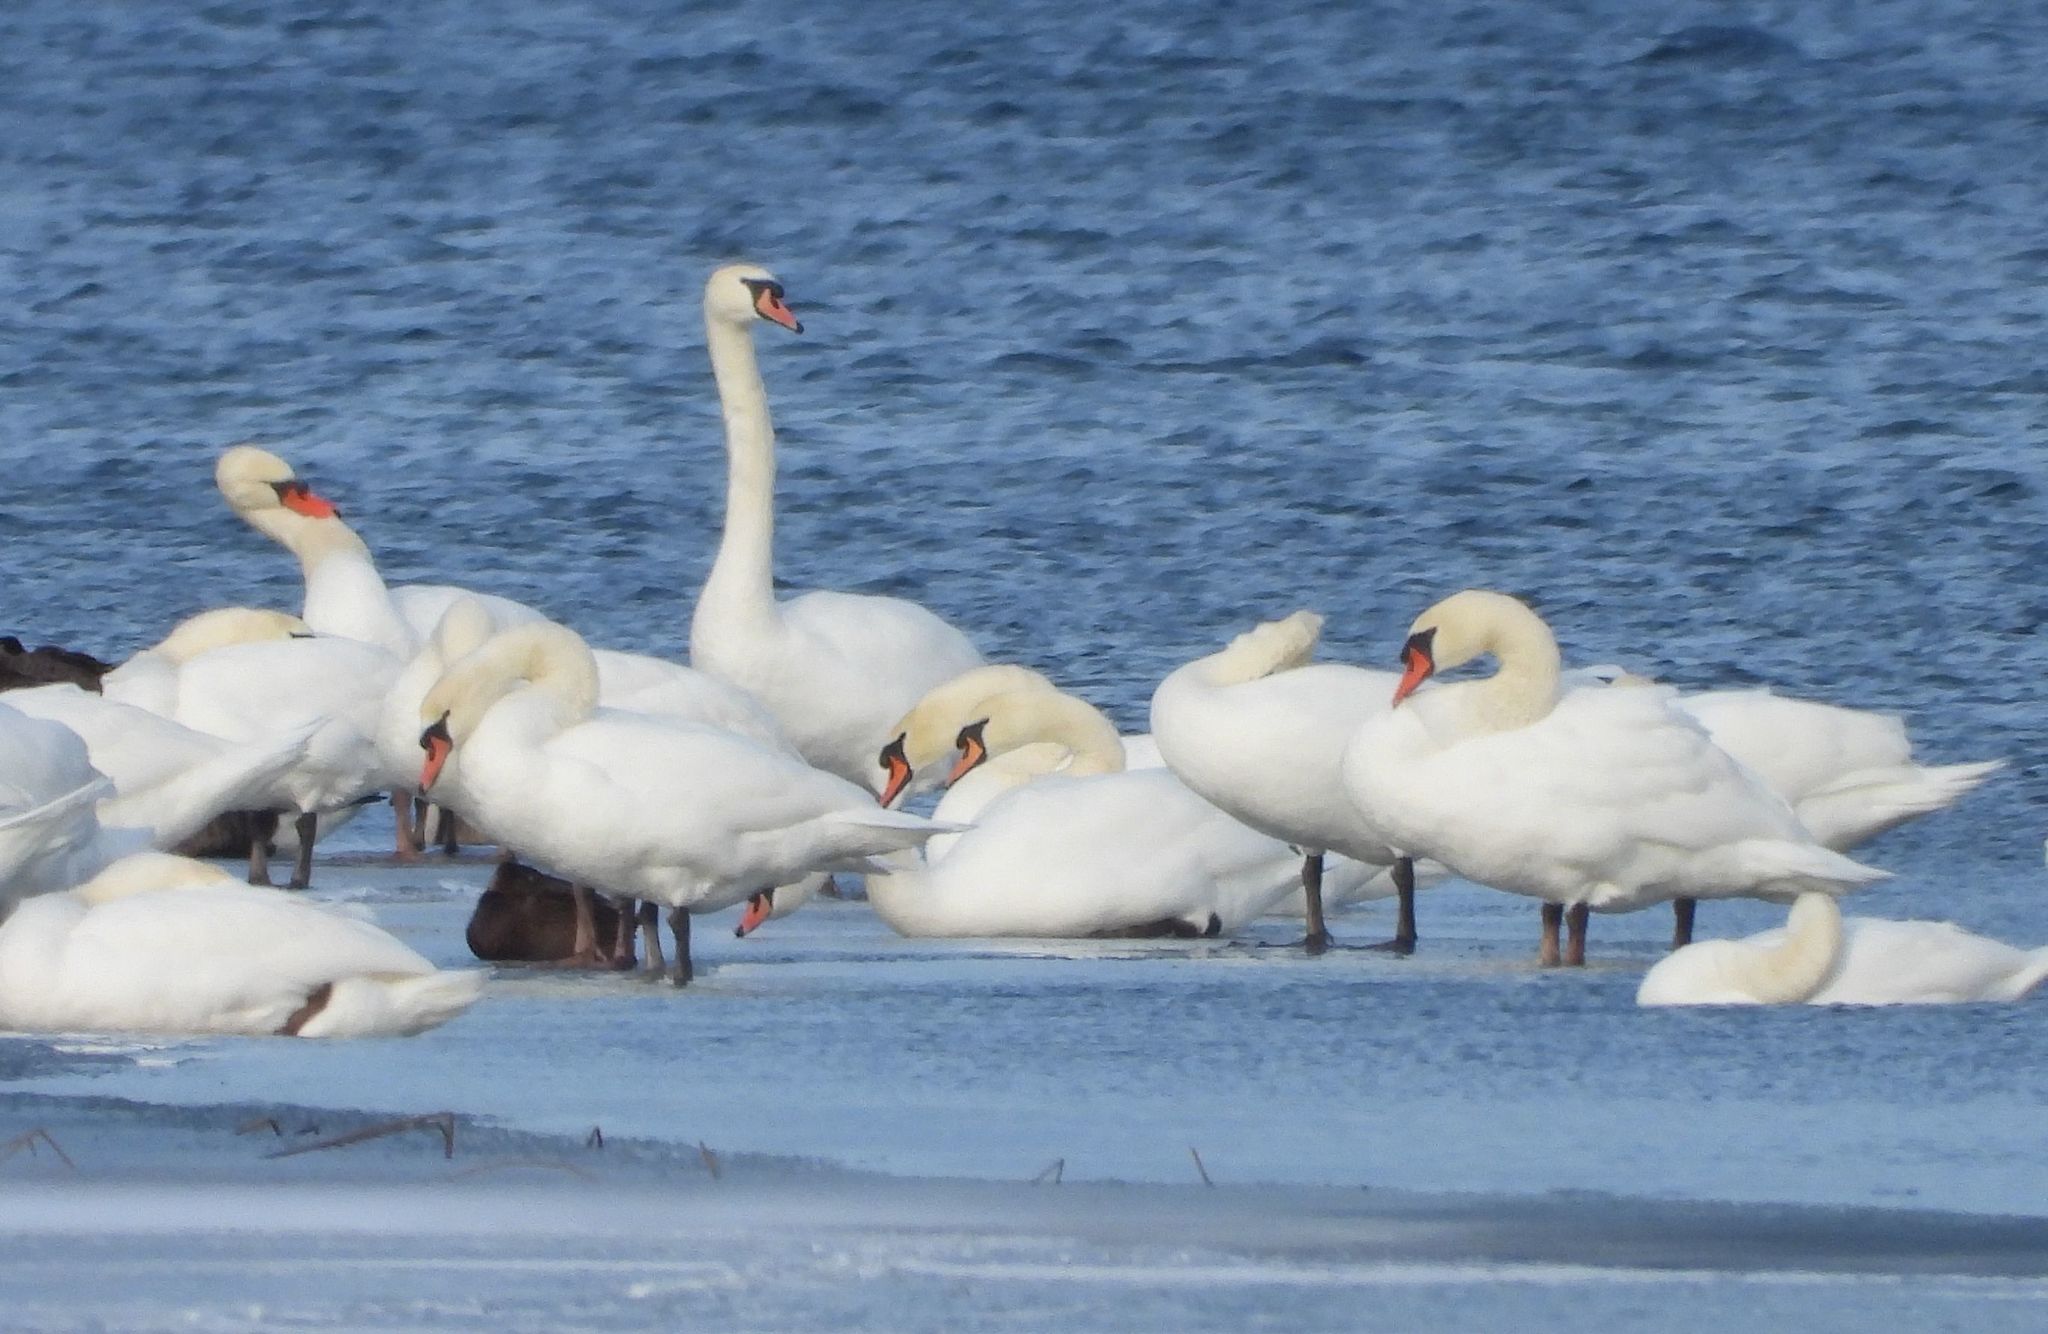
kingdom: Animalia
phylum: Chordata
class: Aves
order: Anseriformes
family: Anatidae
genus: Cygnus
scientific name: Cygnus olor
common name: Mute swan
